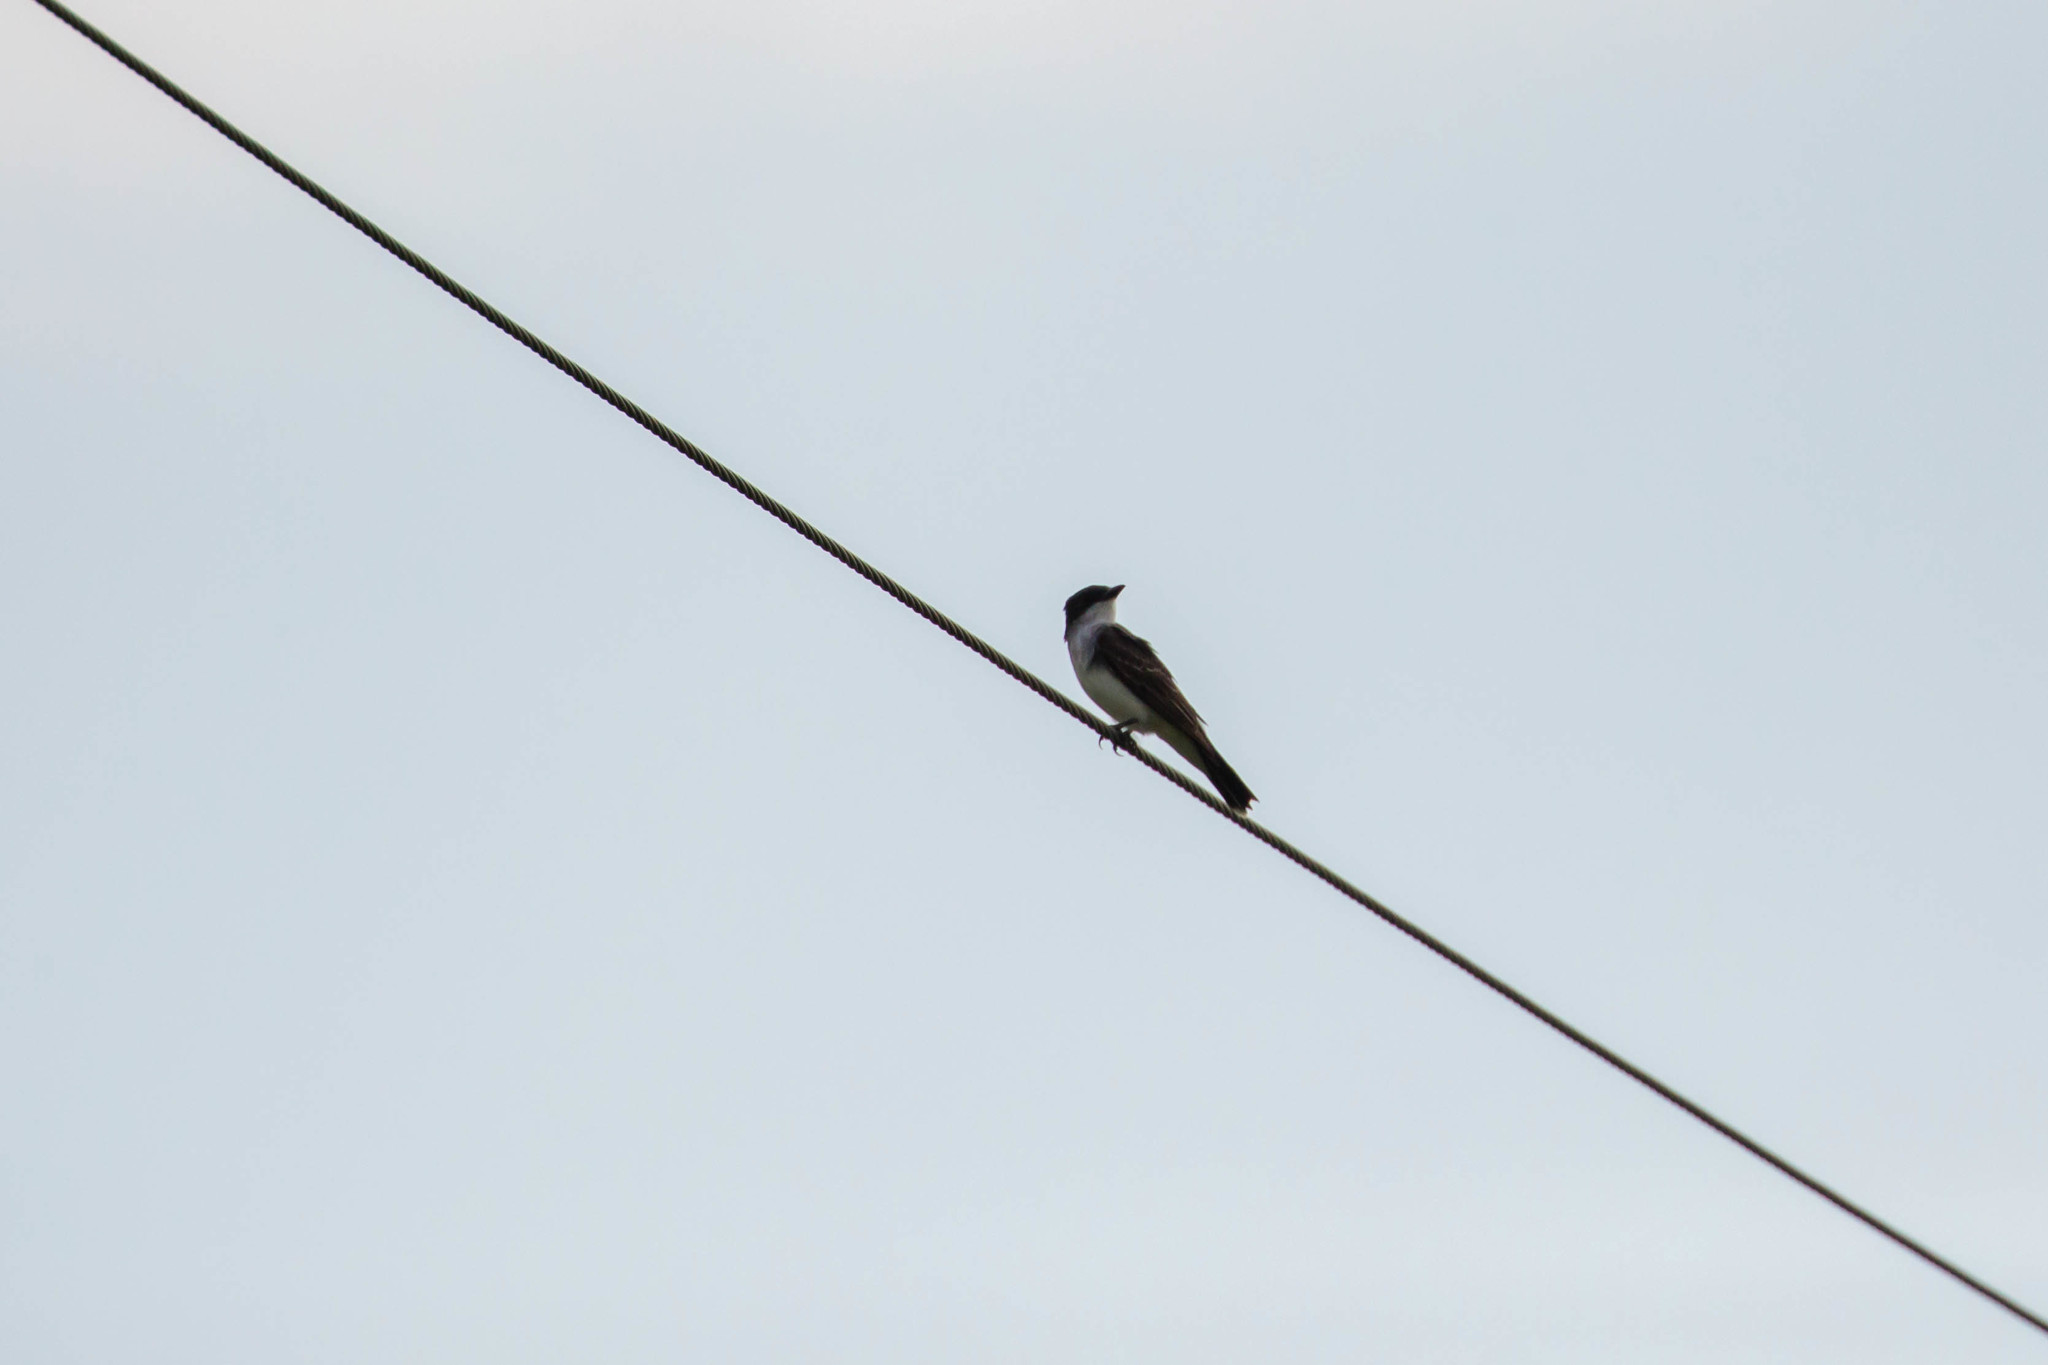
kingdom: Animalia
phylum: Chordata
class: Aves
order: Passeriformes
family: Tyrannidae
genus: Tyrannus
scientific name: Tyrannus tyrannus
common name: Eastern kingbird
